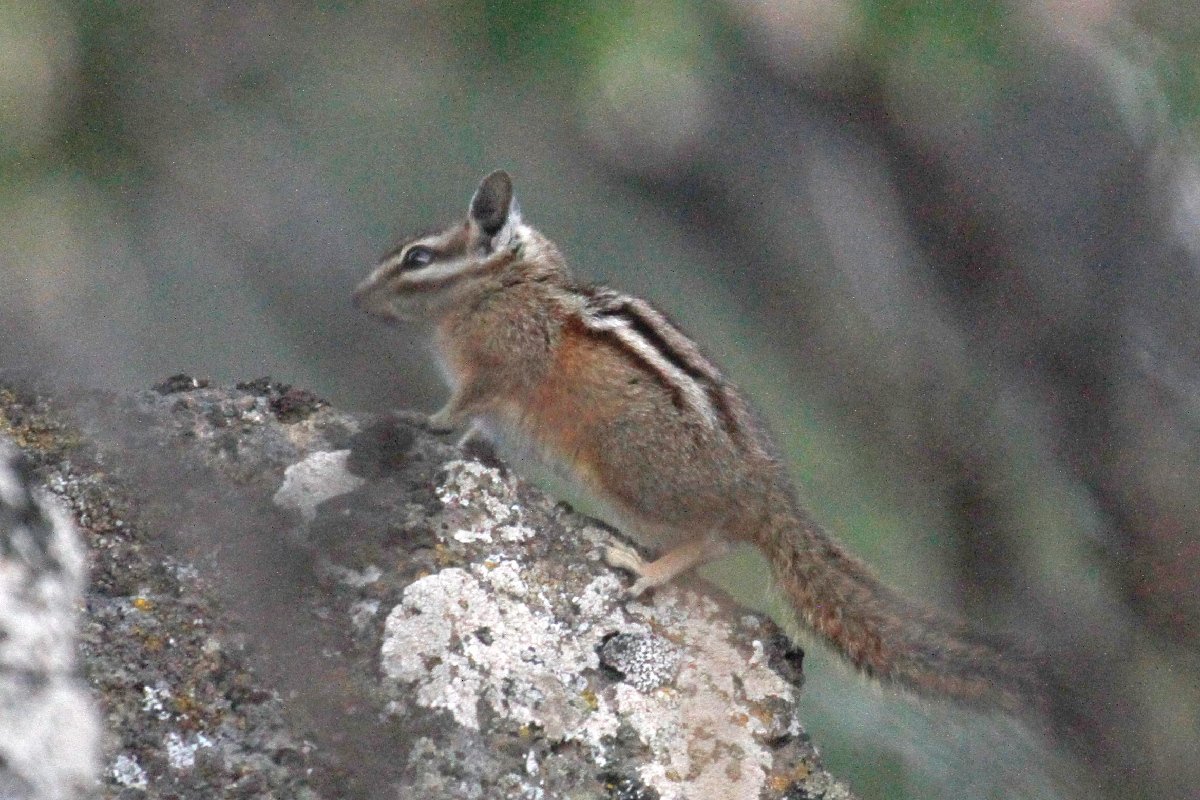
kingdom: Animalia
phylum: Chordata
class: Mammalia
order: Rodentia
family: Sciuridae
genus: Tamias
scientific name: Tamias minimus
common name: Least chipmunk
